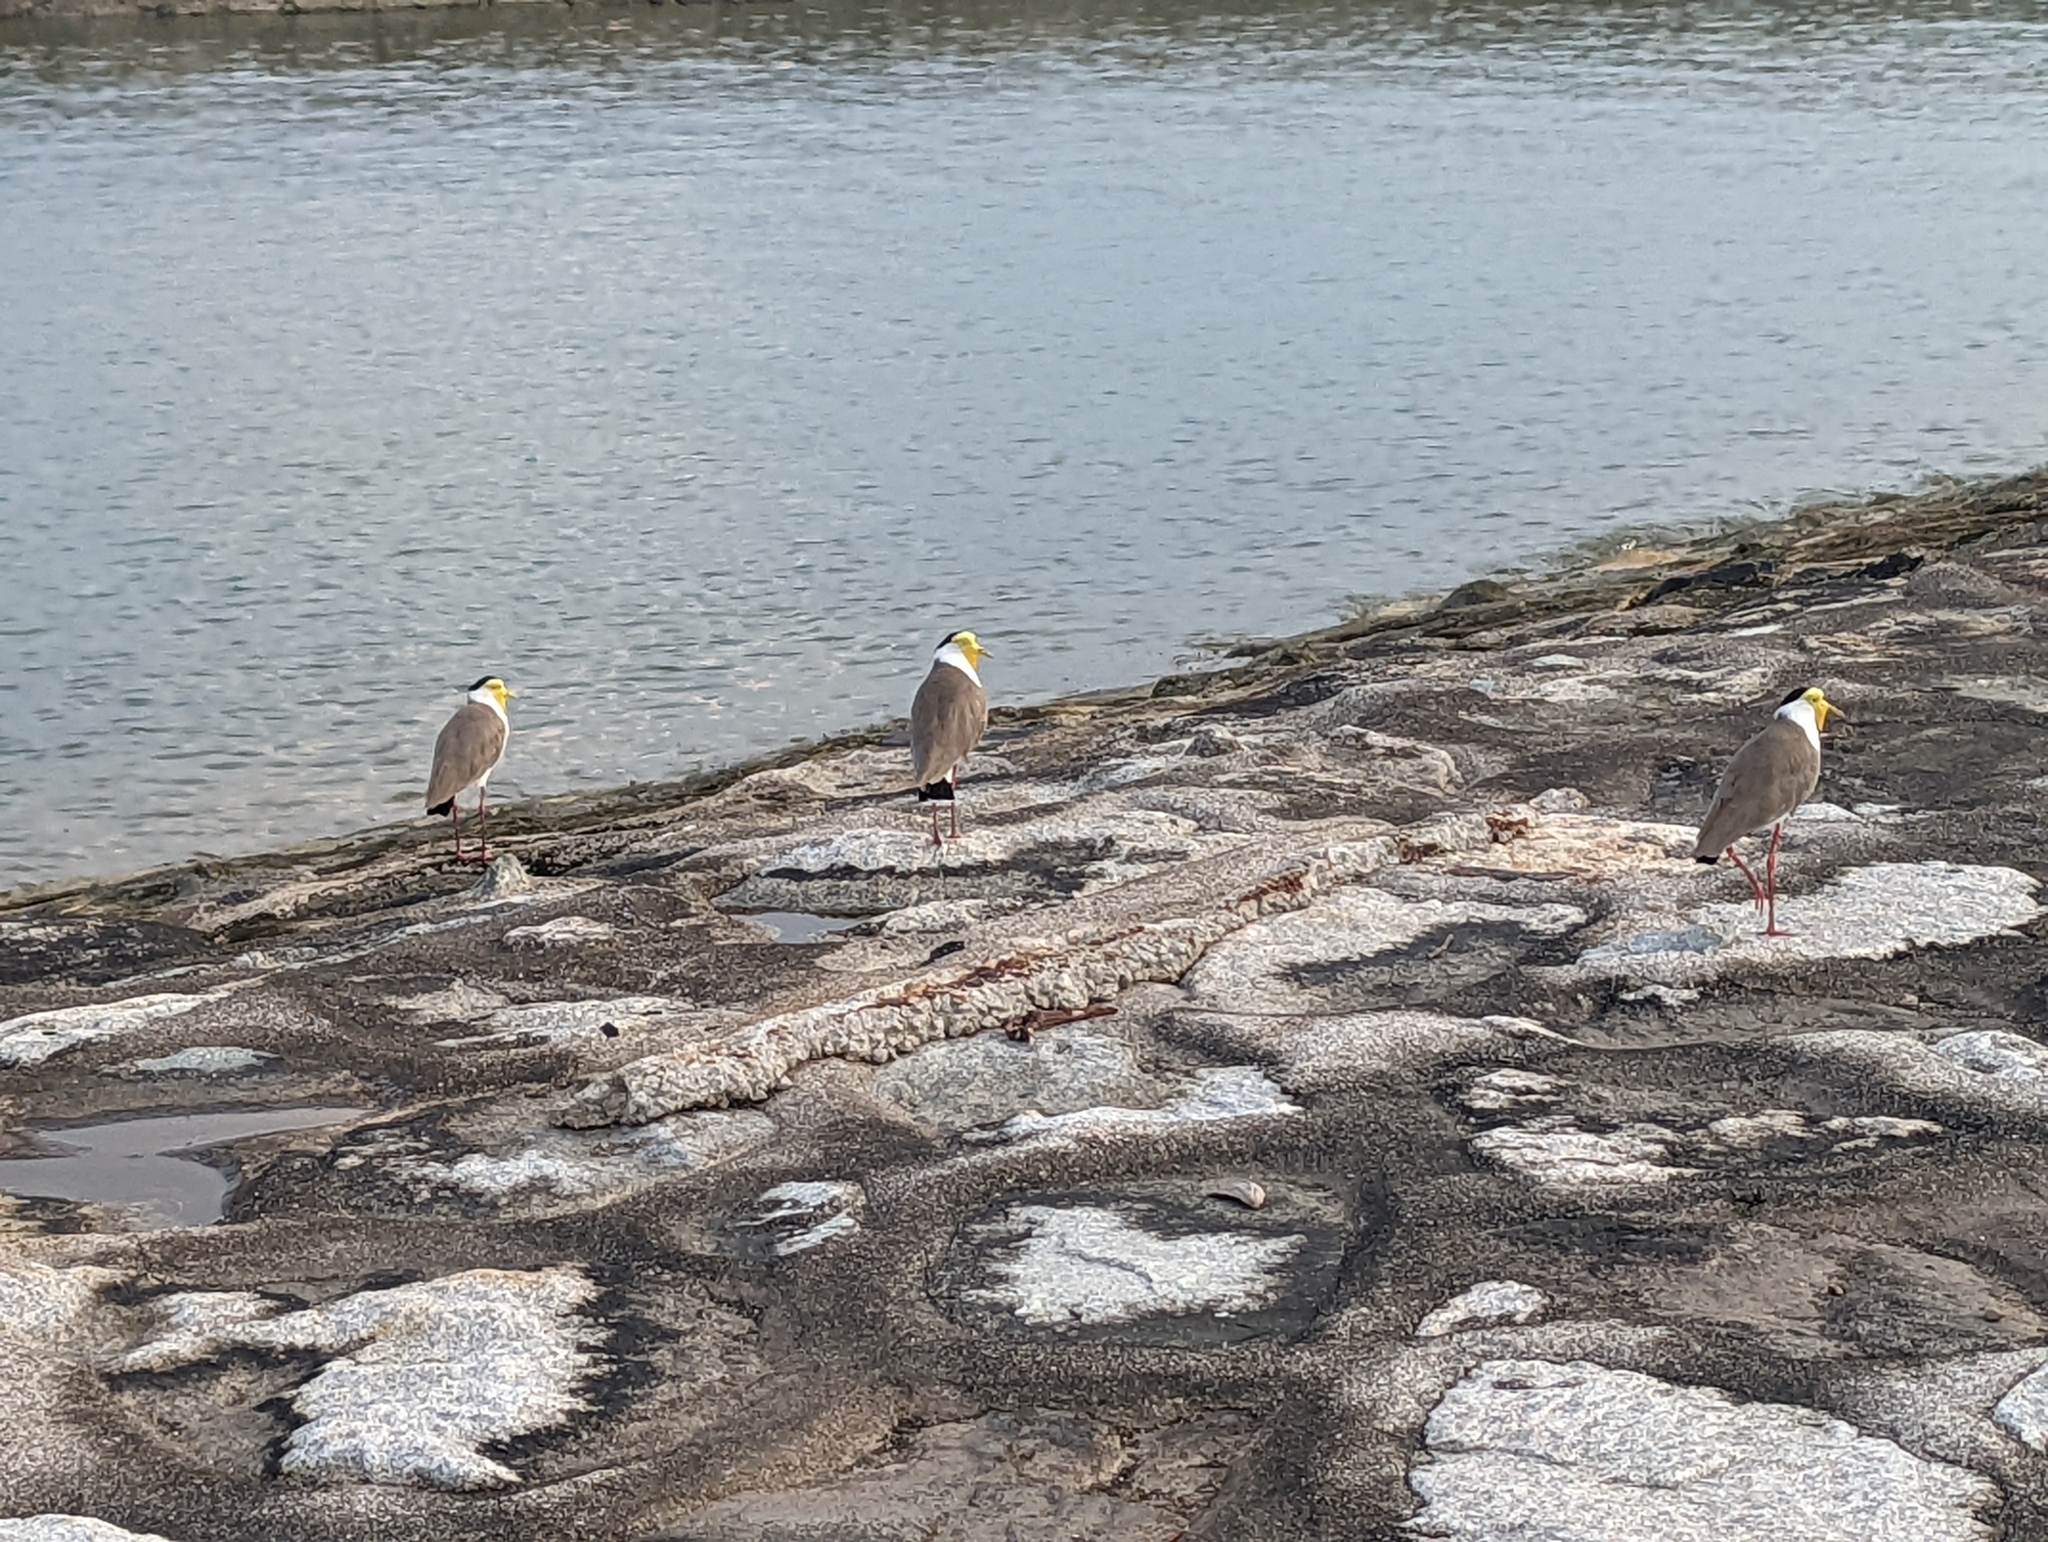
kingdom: Animalia
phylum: Chordata
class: Aves
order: Charadriiformes
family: Charadriidae
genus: Vanellus
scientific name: Vanellus miles
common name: Masked lapwing
